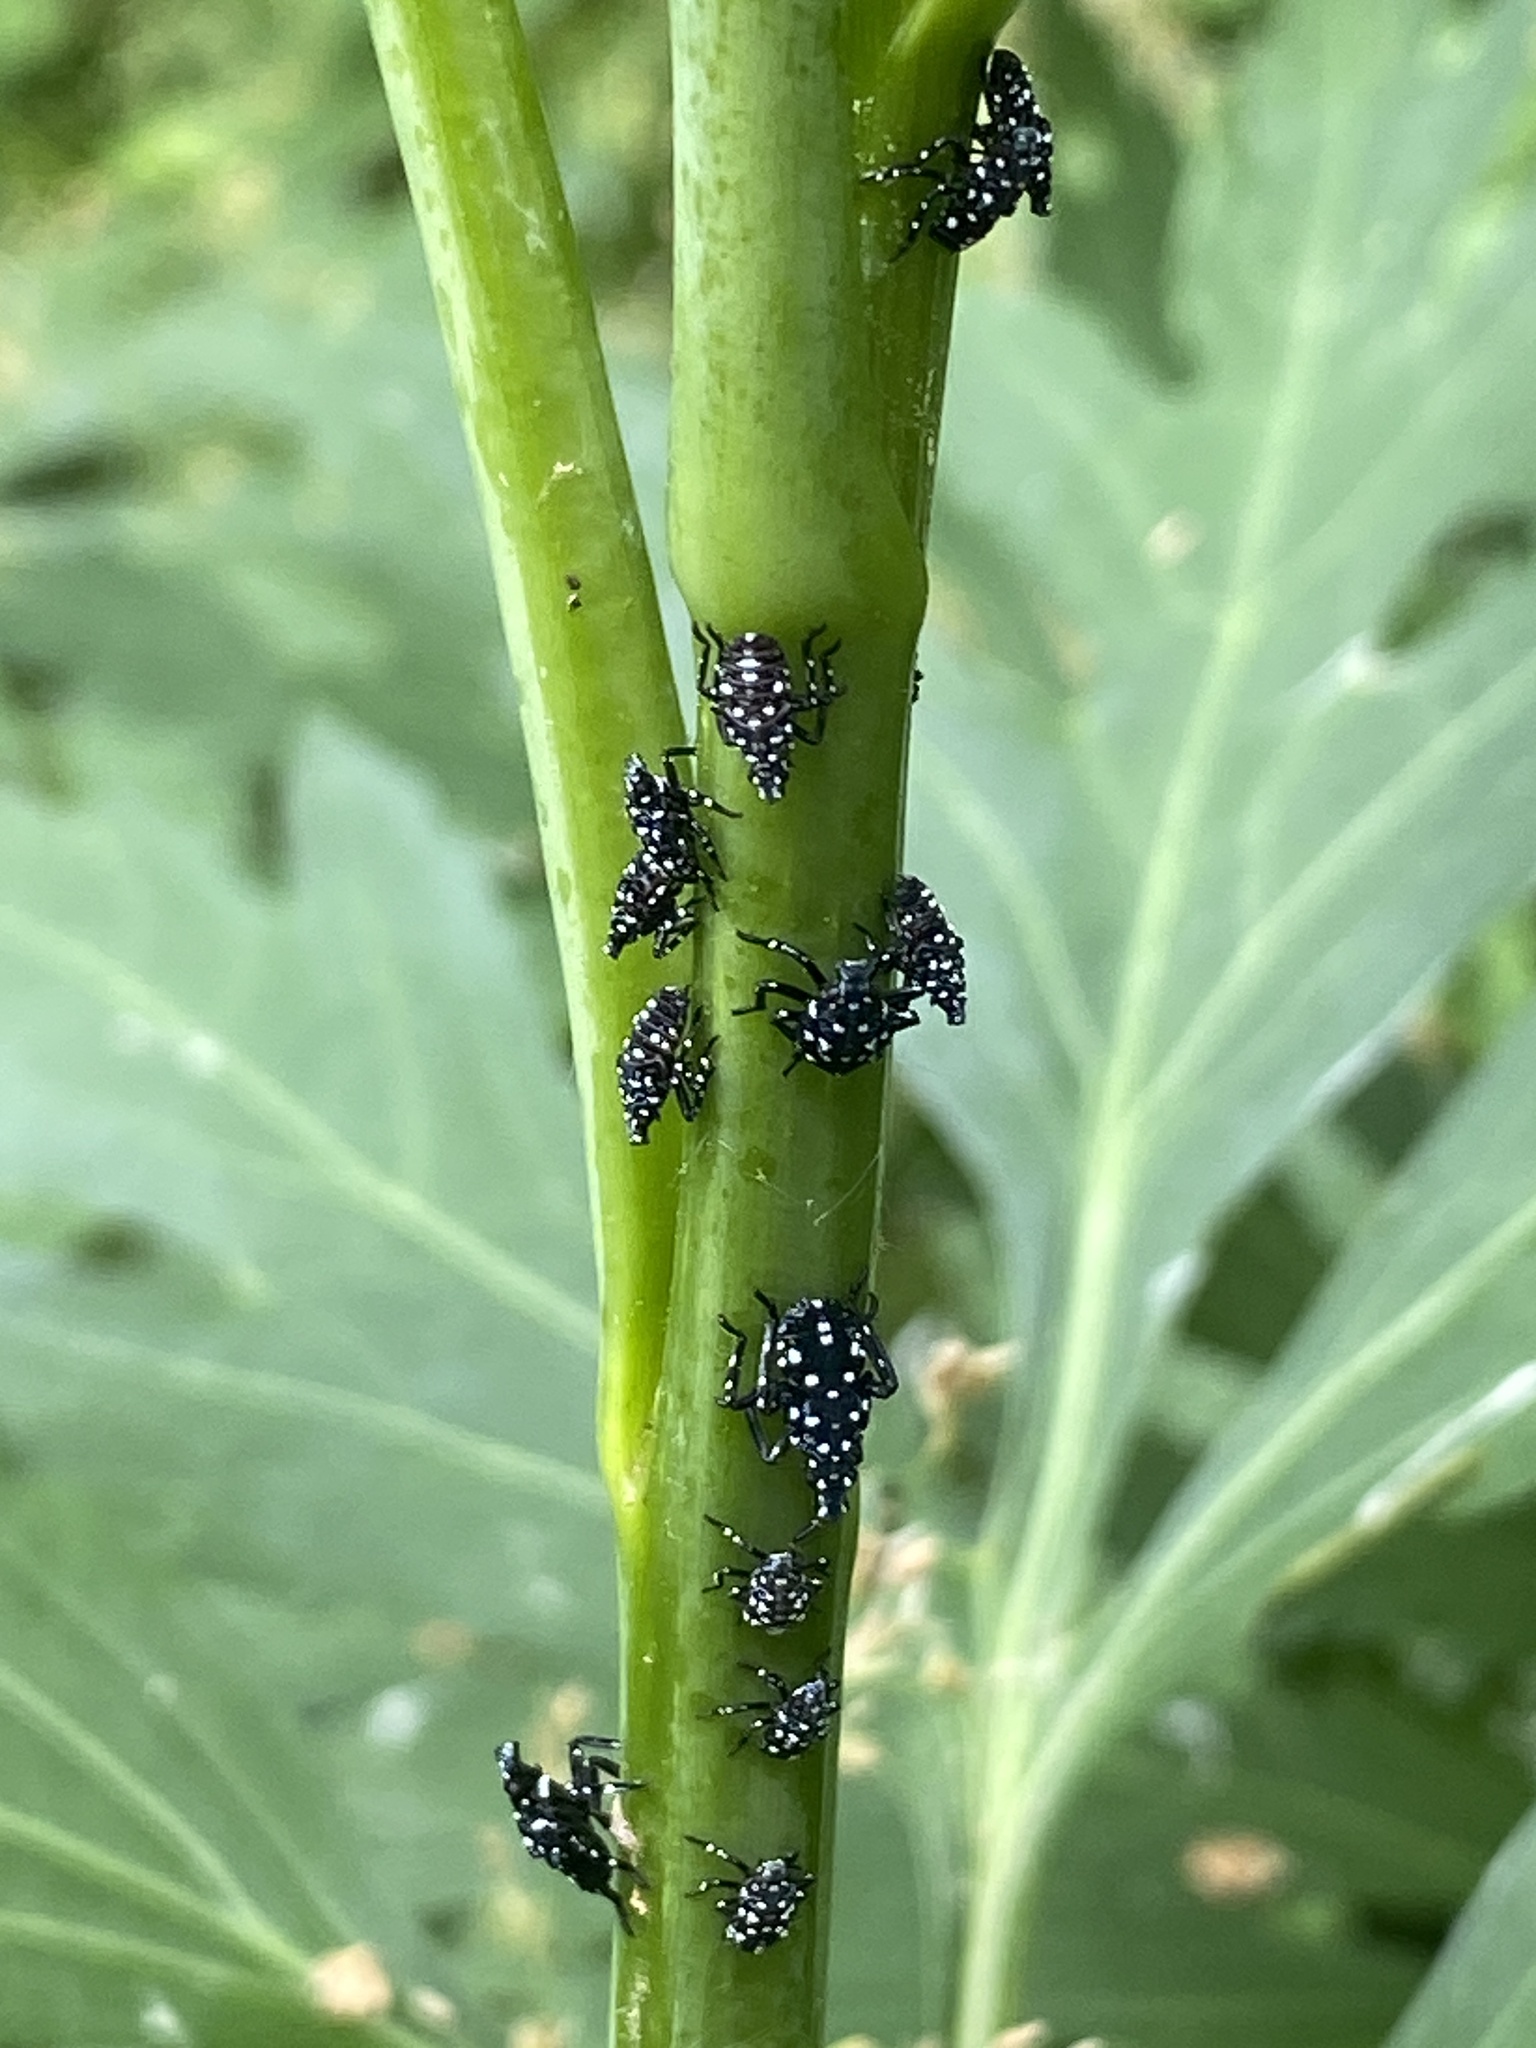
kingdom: Animalia
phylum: Arthropoda
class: Insecta
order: Hemiptera
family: Fulgoridae
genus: Lycorma
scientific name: Lycorma delicatula
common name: Spotted lanternfly
